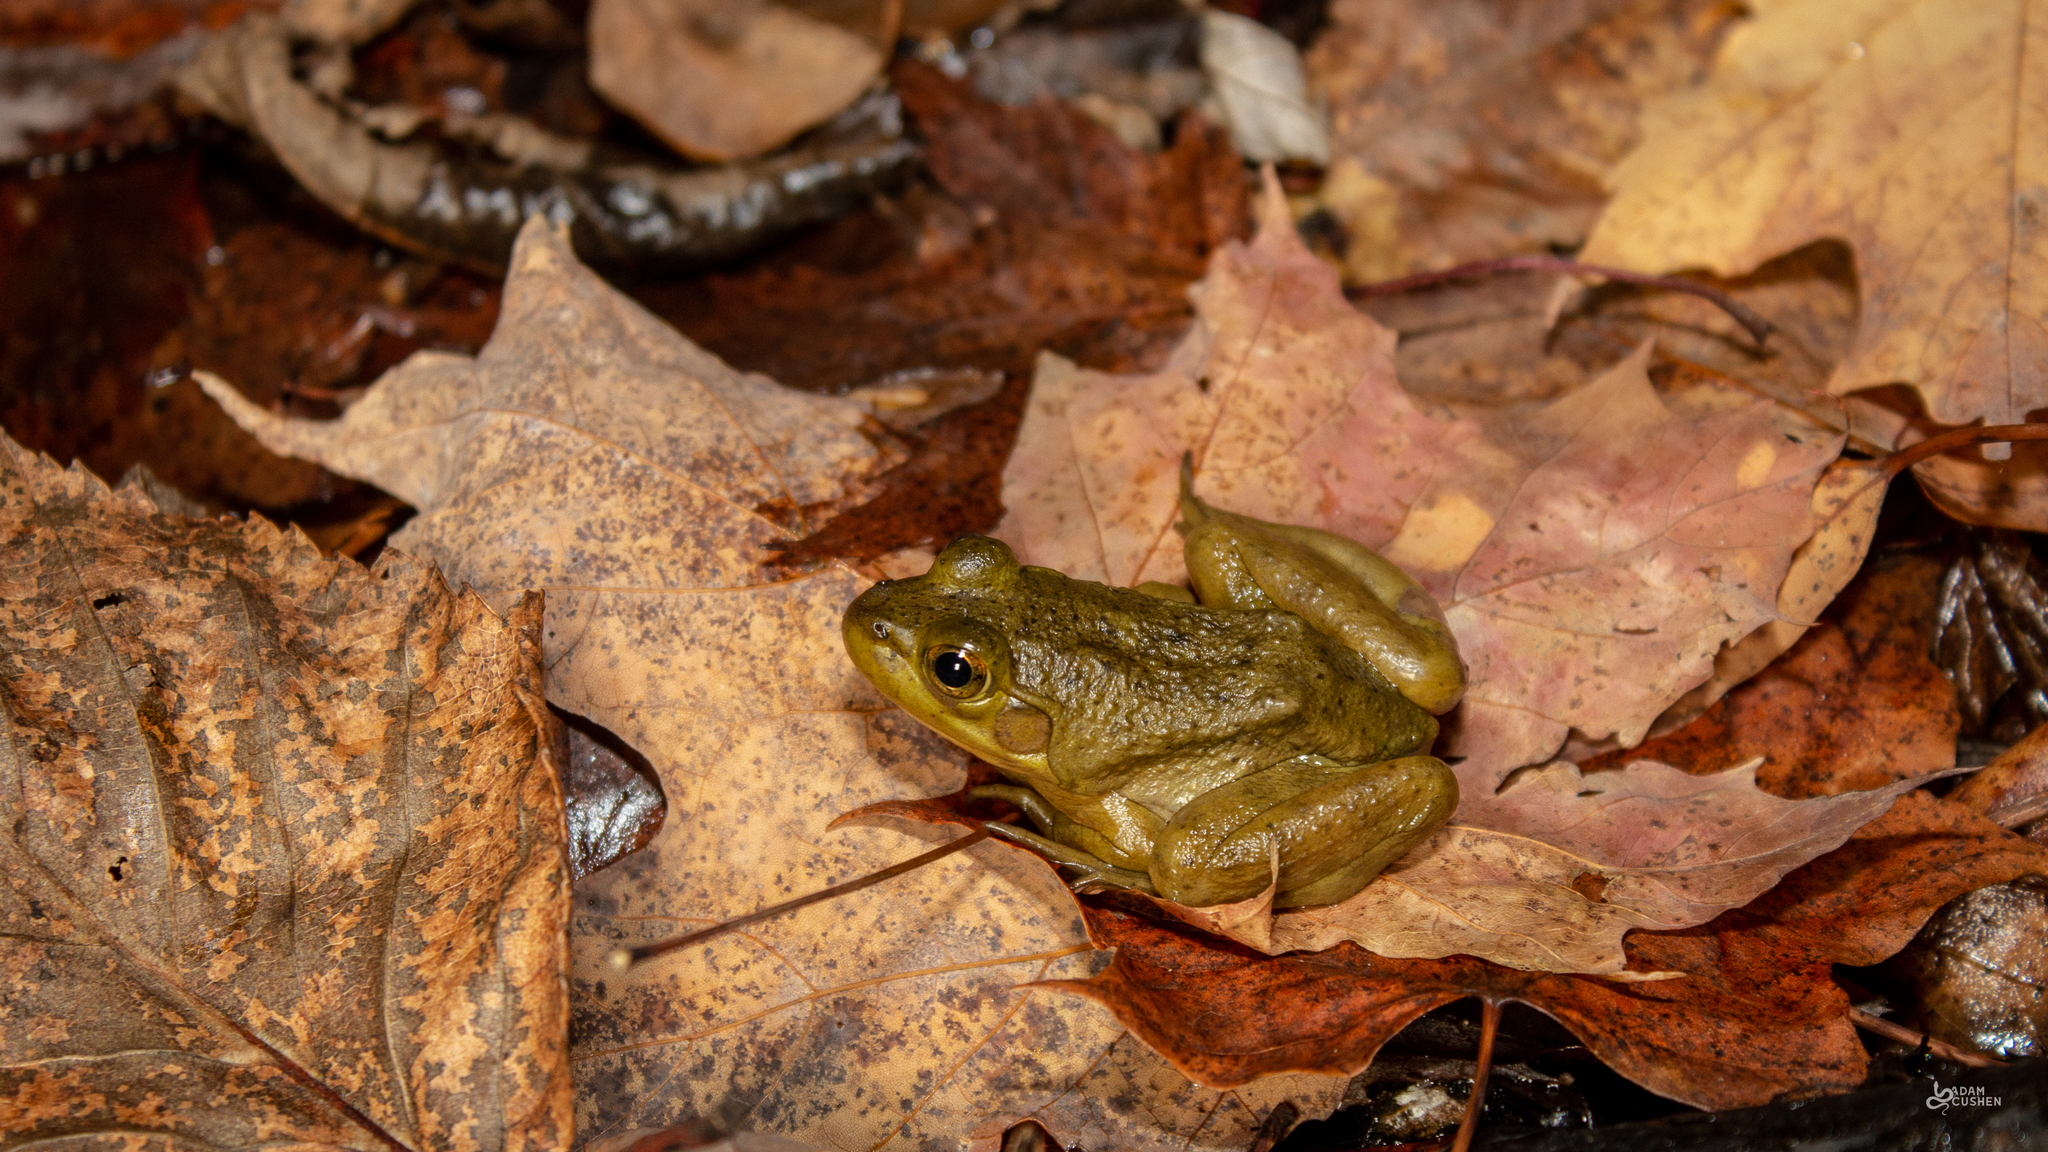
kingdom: Animalia
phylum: Chordata
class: Amphibia
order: Anura
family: Ranidae
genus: Lithobates
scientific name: Lithobates catesbeianus
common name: American bullfrog
